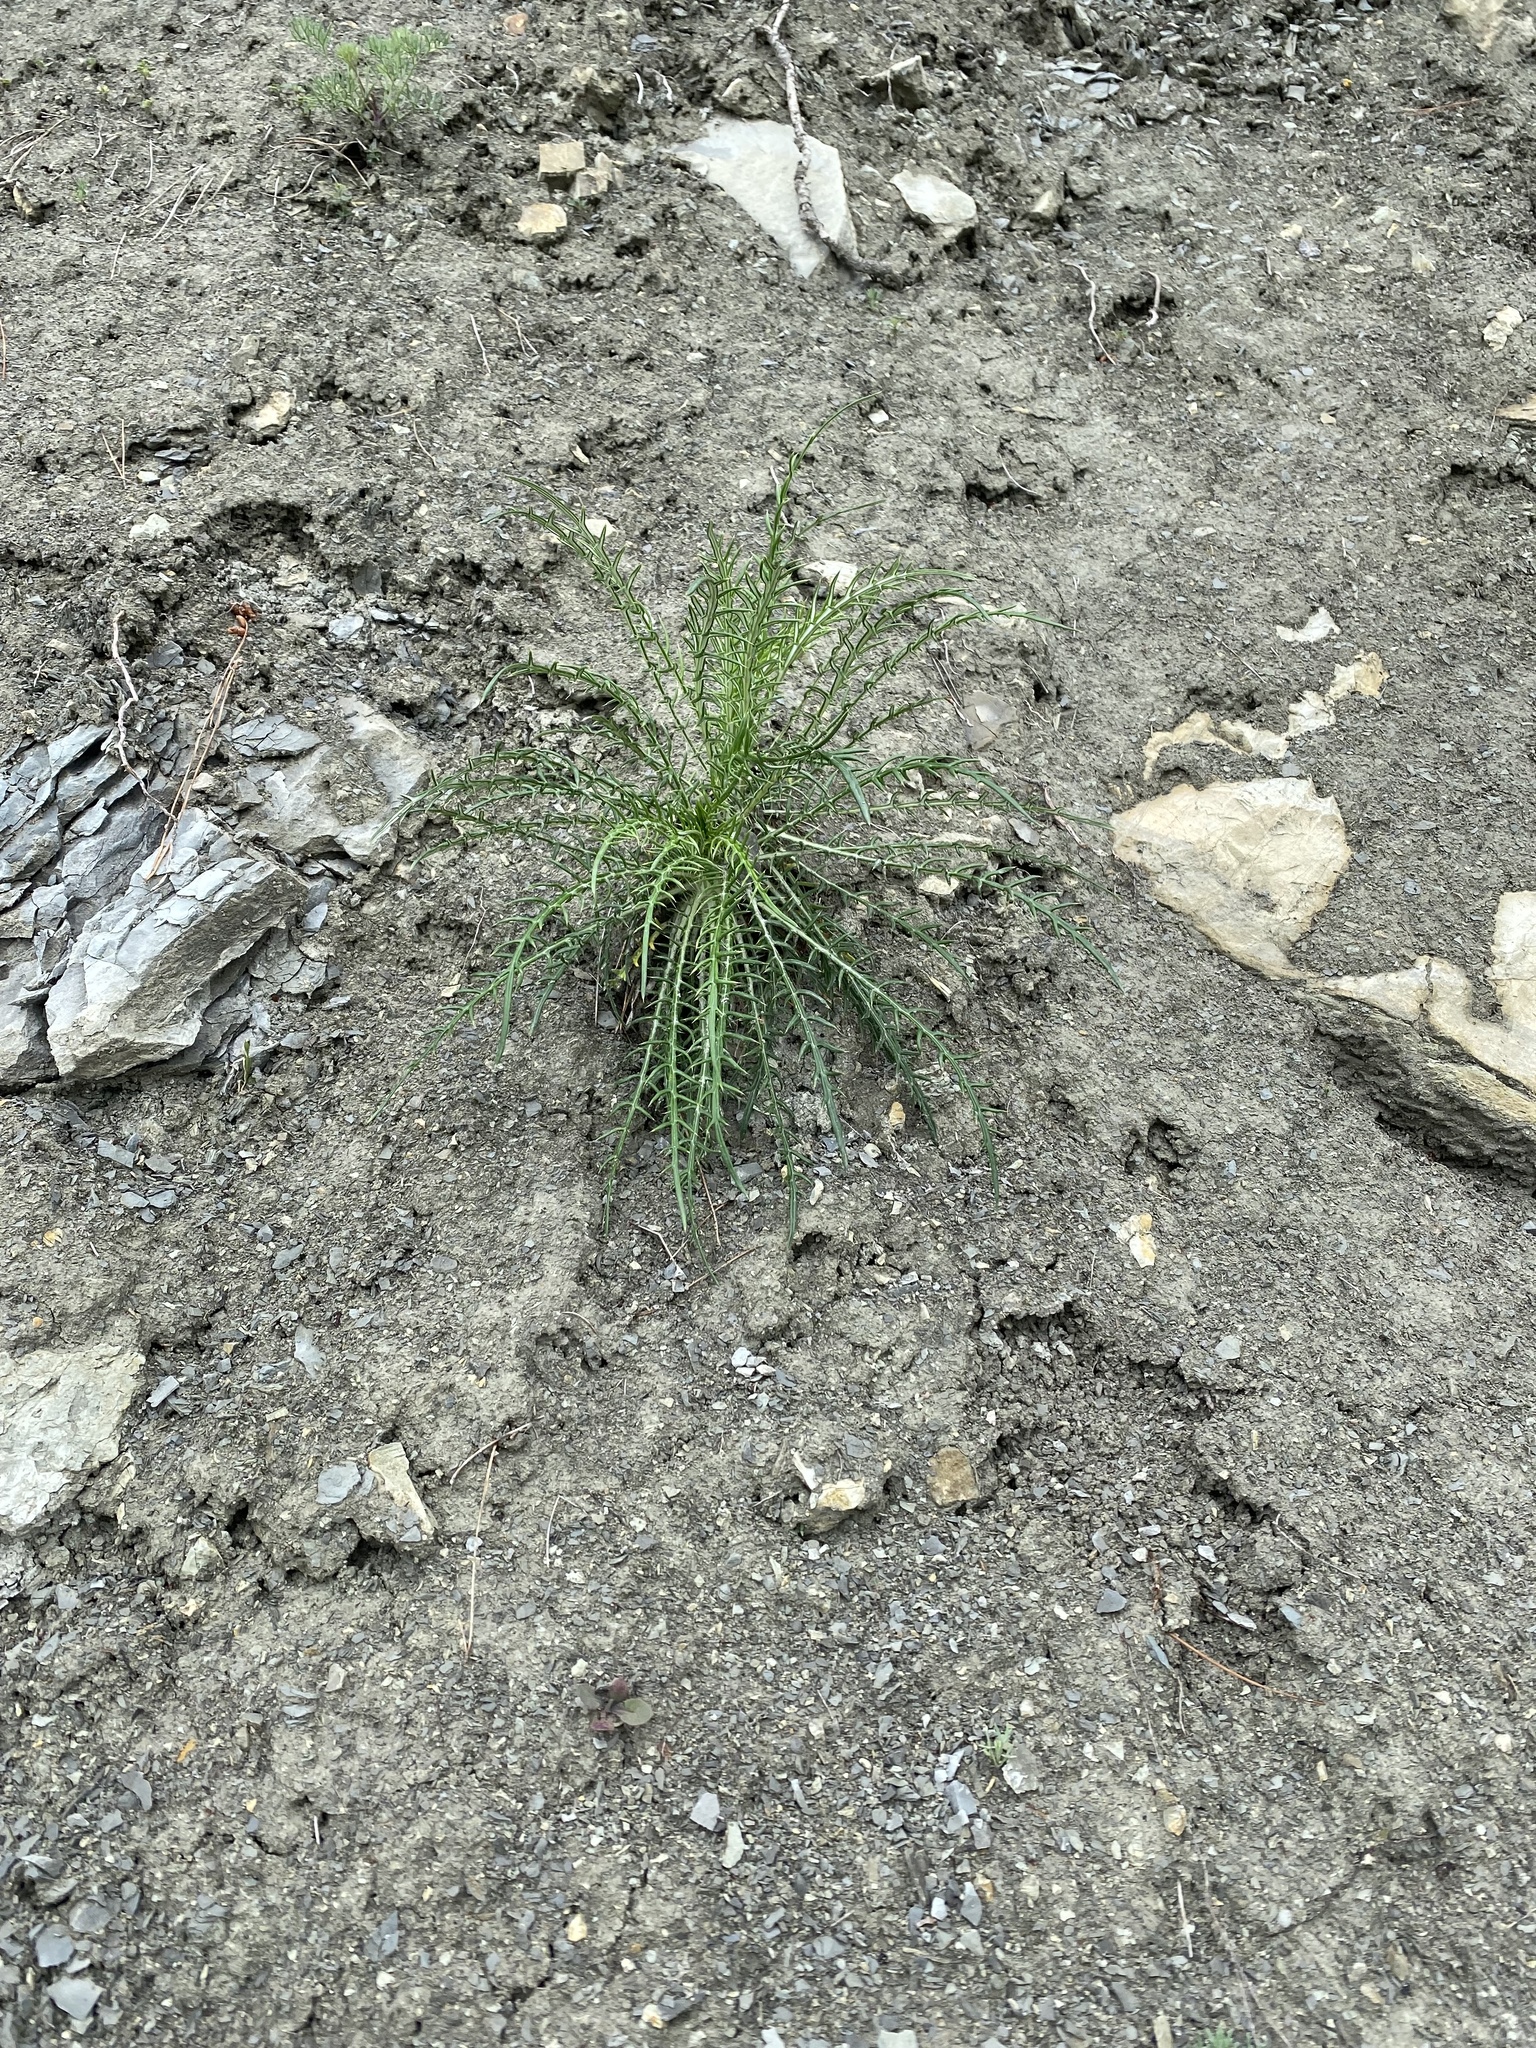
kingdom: Plantae
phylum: Tracheophyta
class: Magnoliopsida
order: Asterales
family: Asteraceae
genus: Ptilostemon
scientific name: Ptilostemon echinocephalus
